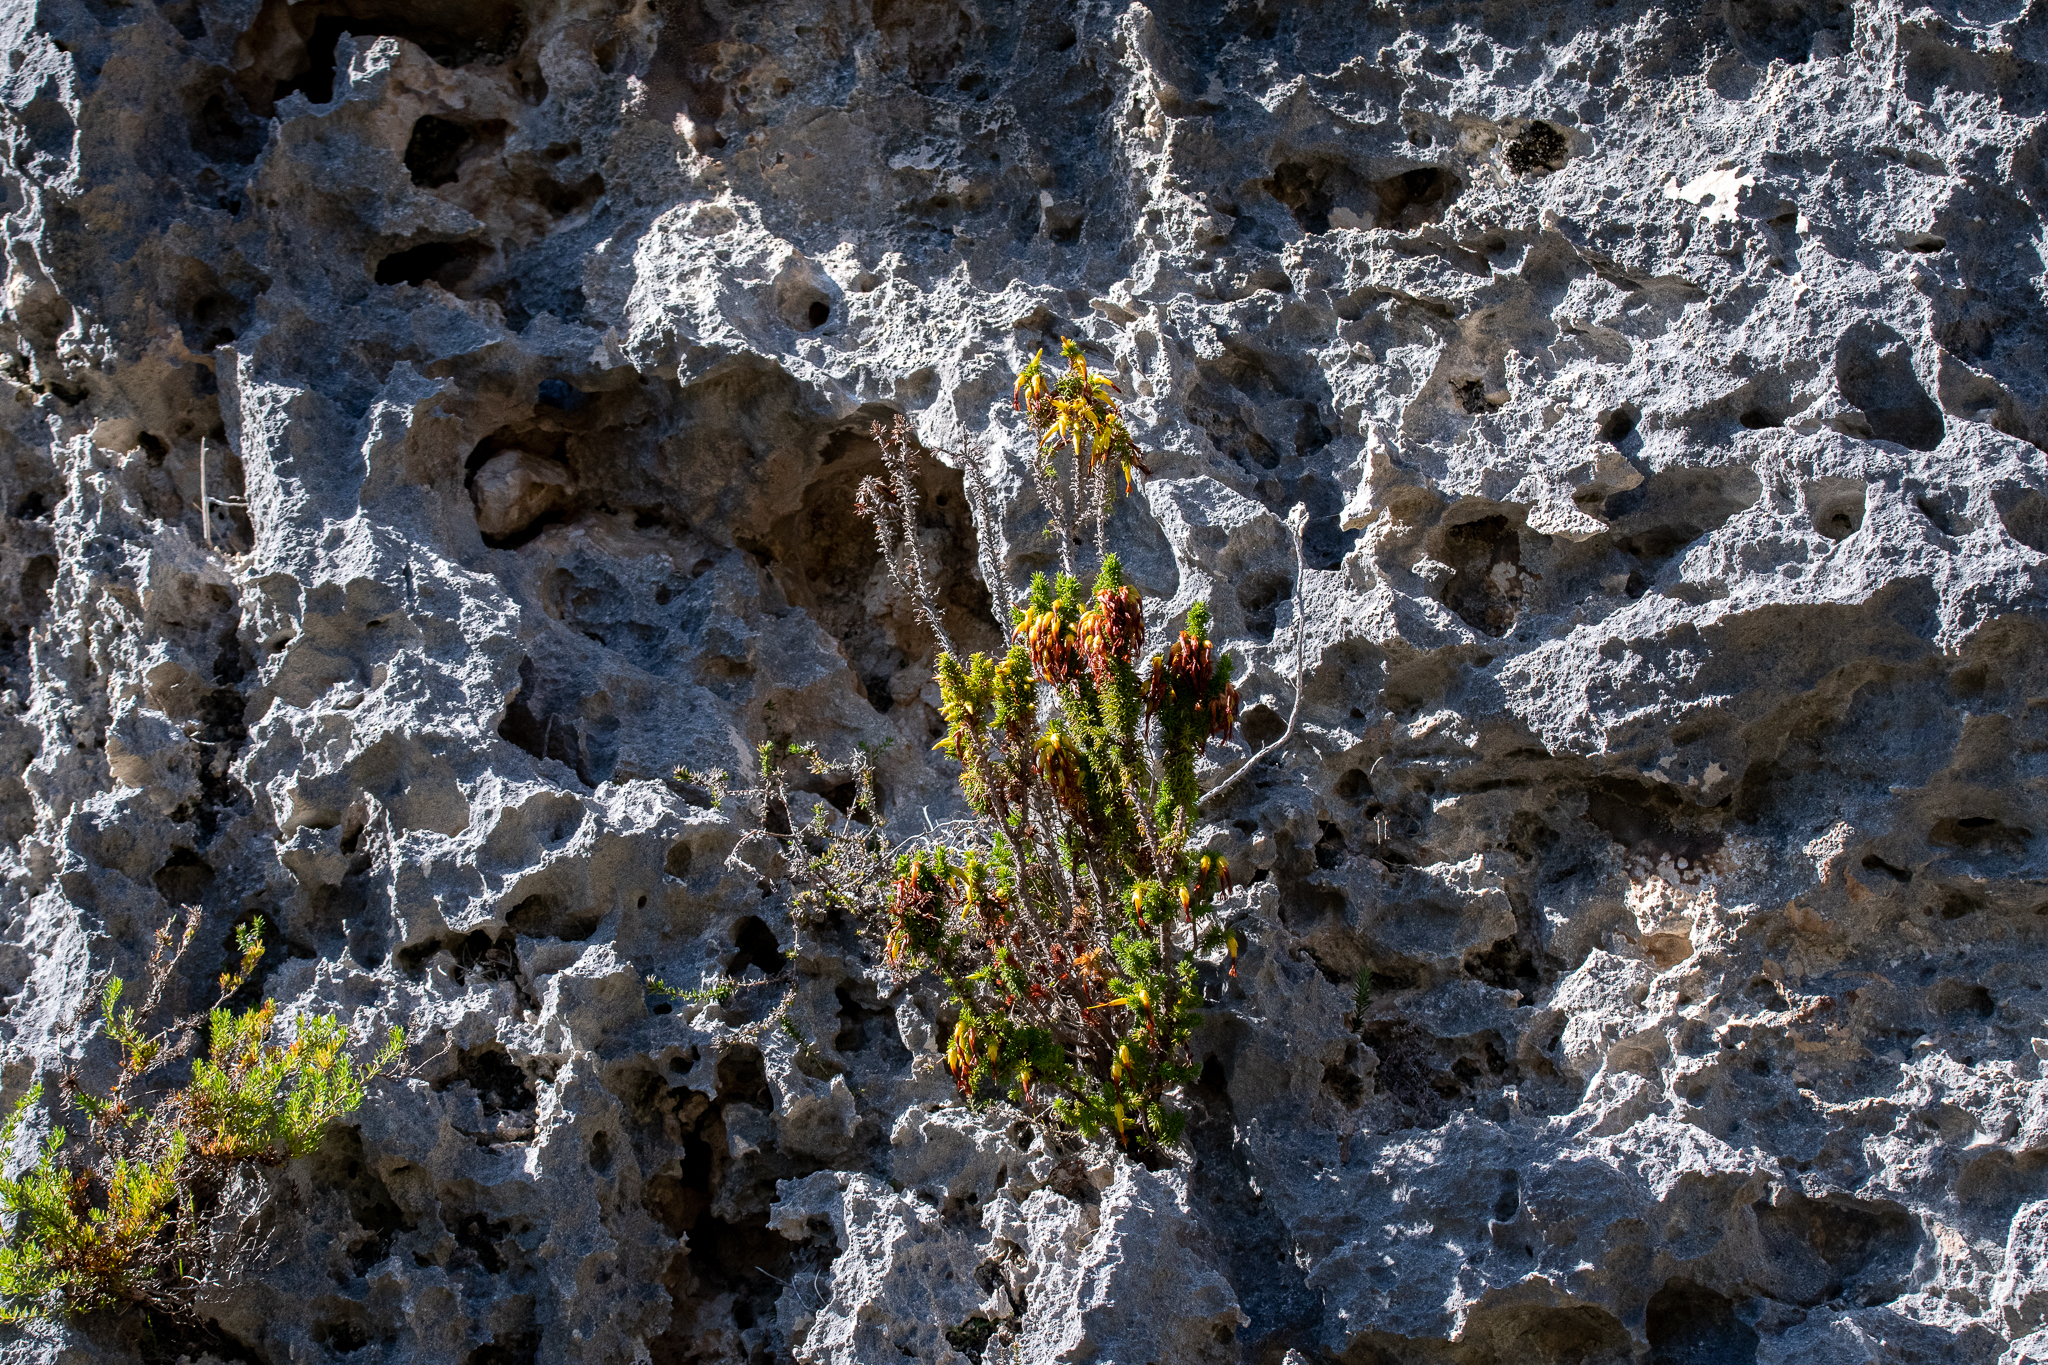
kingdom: Plantae
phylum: Tracheophyta
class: Magnoliopsida
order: Ericales
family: Ericaceae
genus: Erica
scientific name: Erica coccinea
